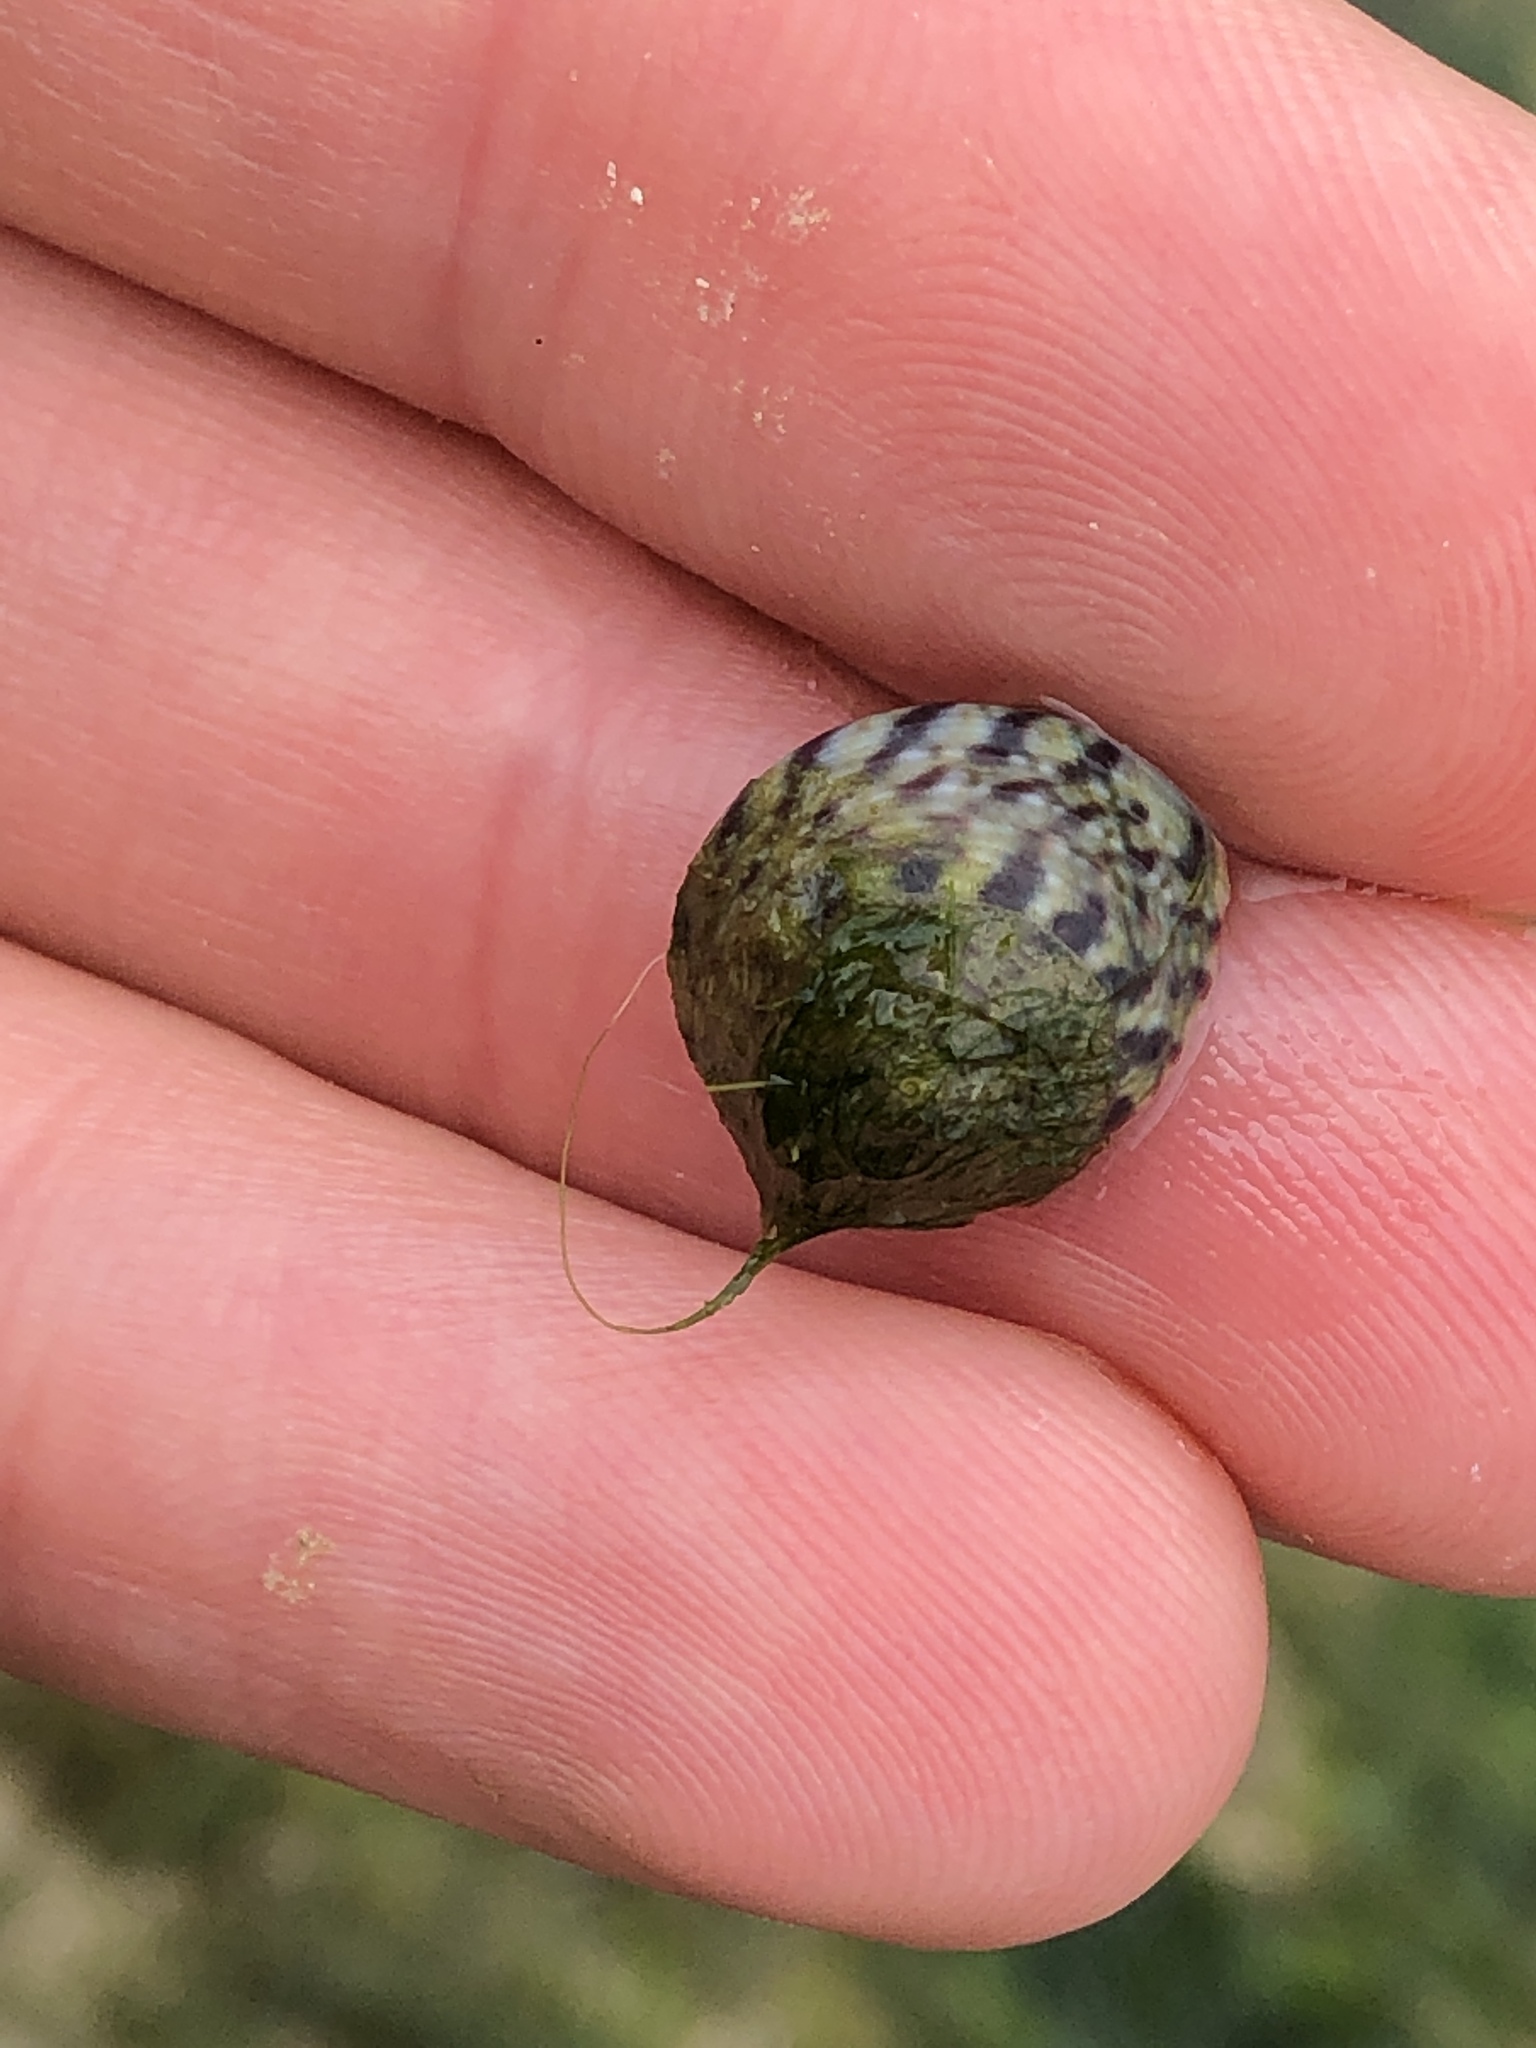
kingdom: Animalia
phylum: Mollusca
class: Gastropoda
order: Trochida
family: Trochidae
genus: Steromphala
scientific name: Steromphala umbilicalis
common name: Flat top shell
